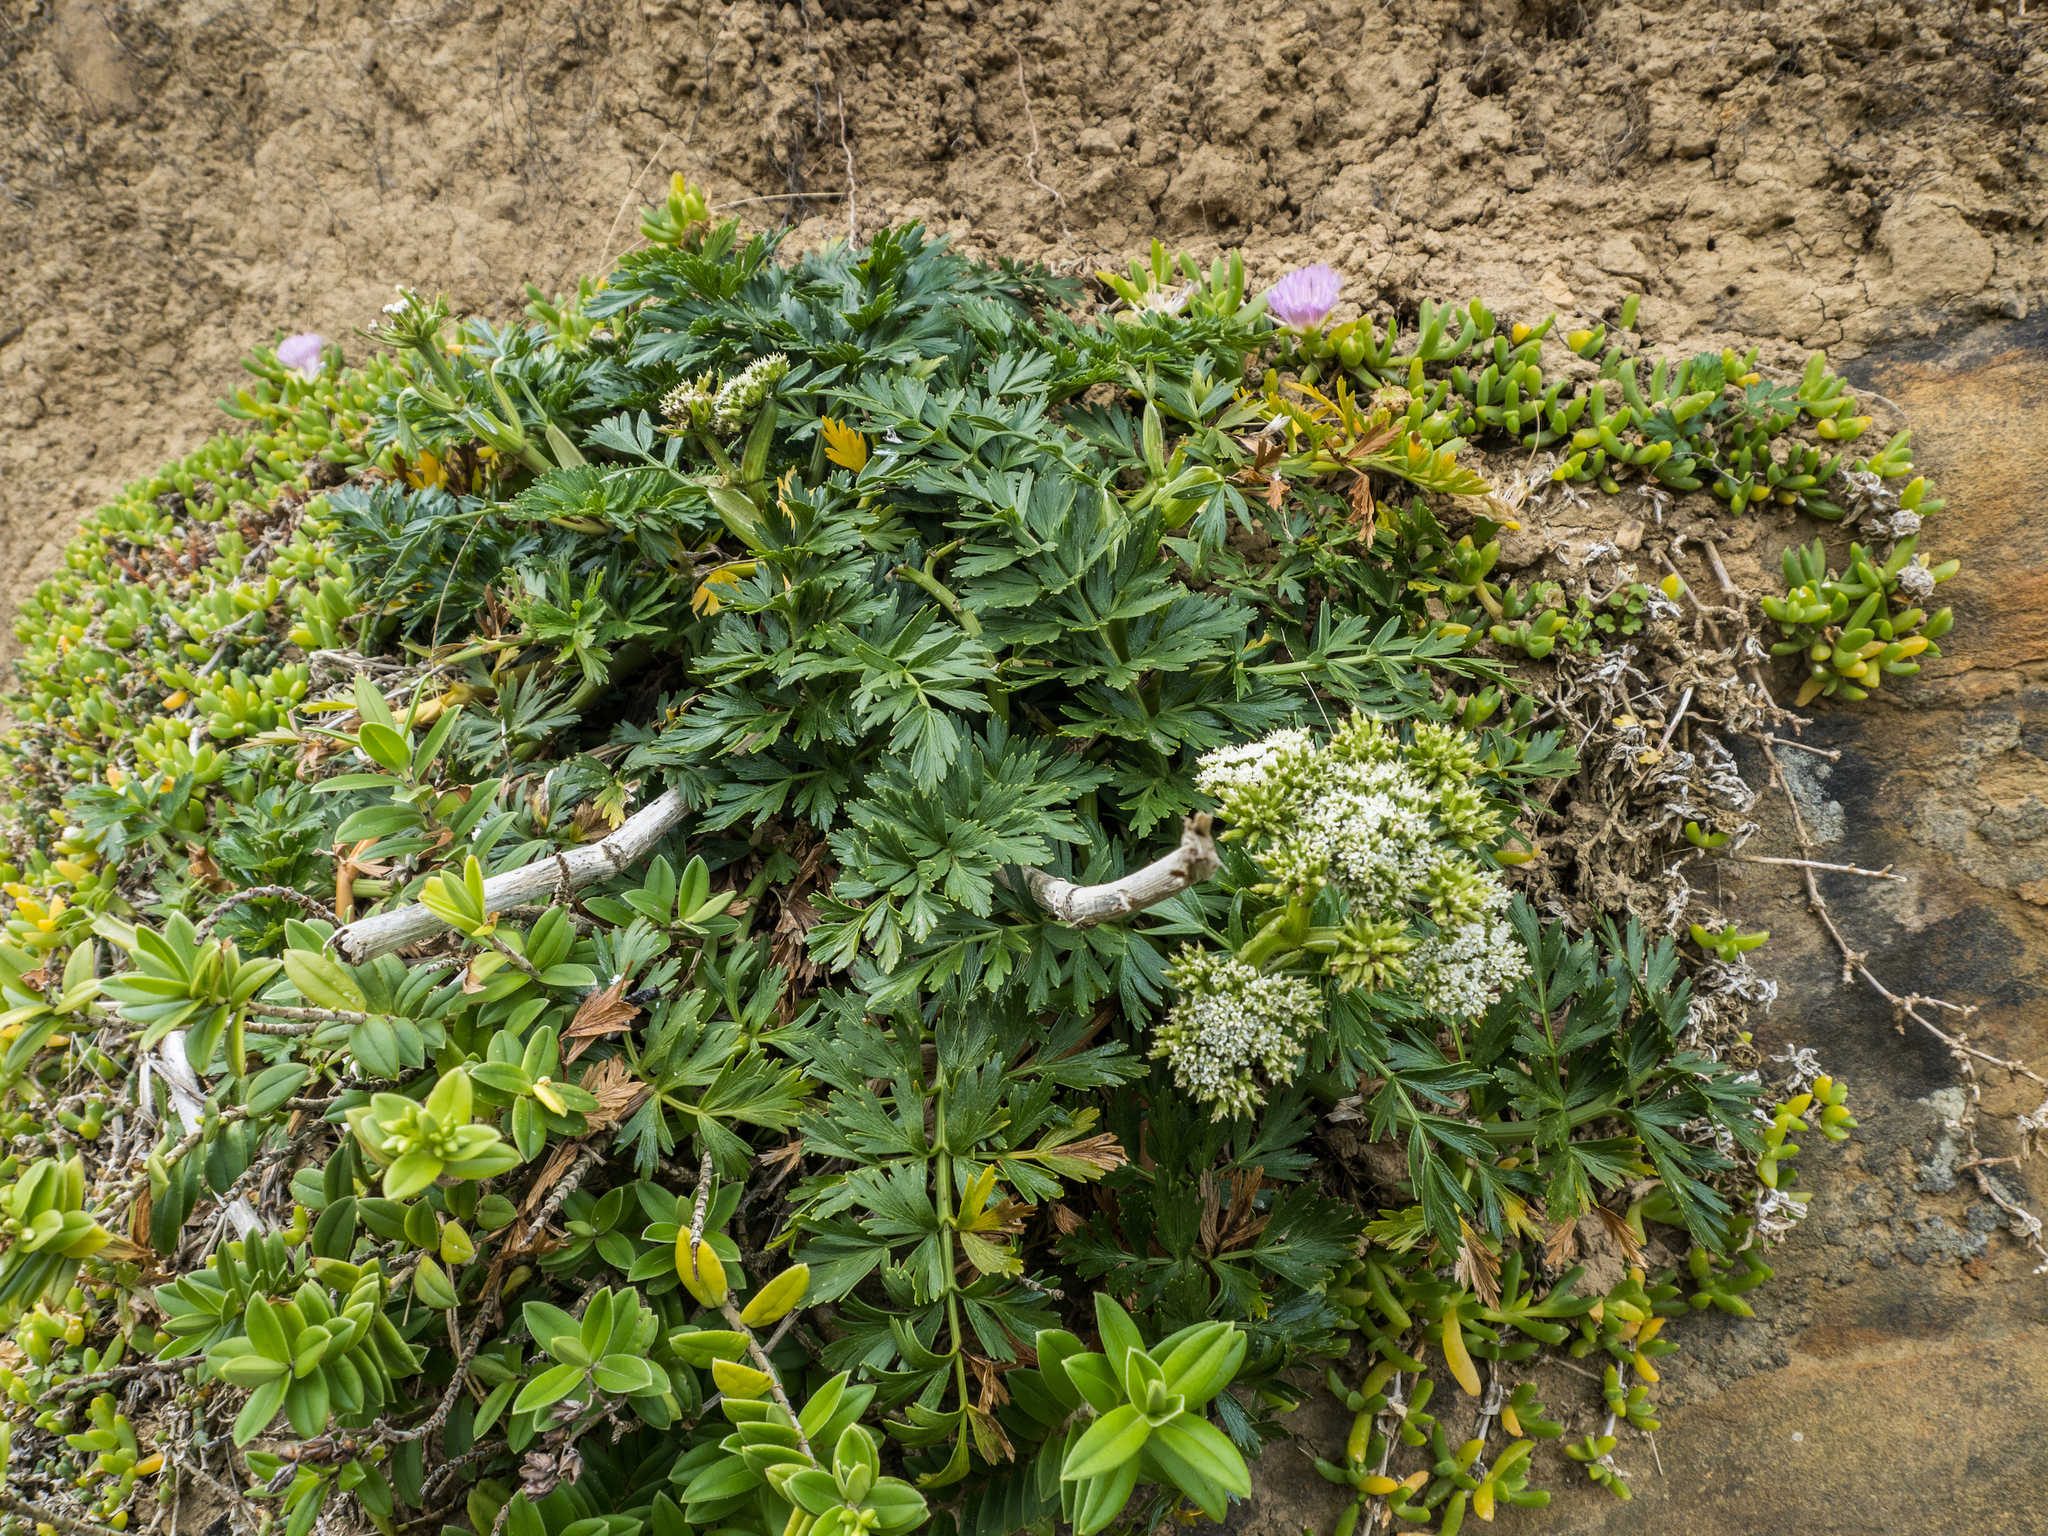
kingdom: Plantae
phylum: Tracheophyta
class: Magnoliopsida
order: Apiales
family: Apiaceae
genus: Anisotome
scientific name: Anisotome lyallii
